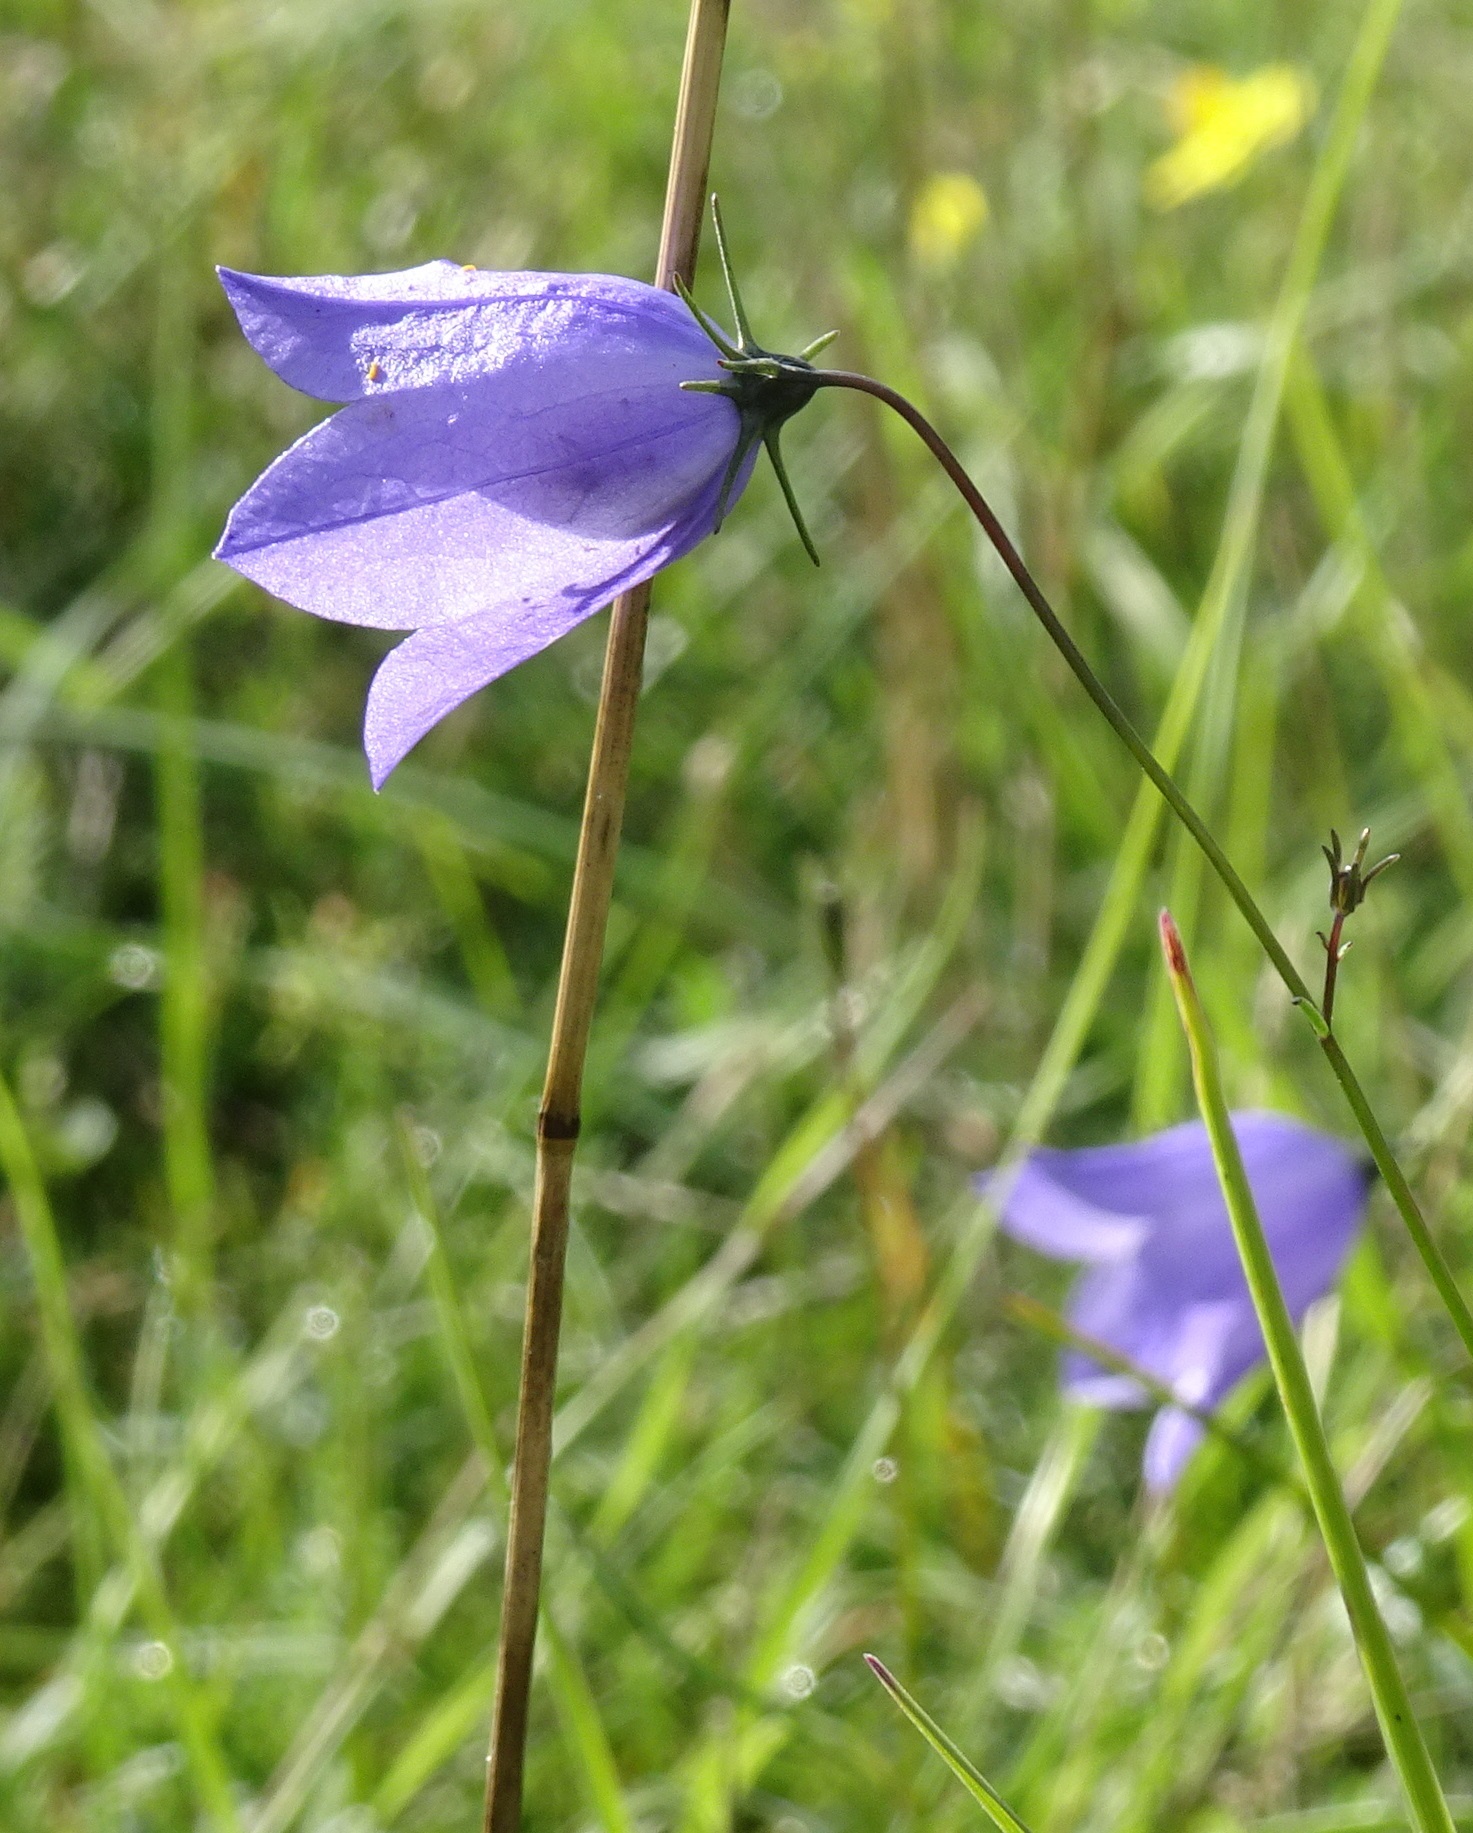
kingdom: Plantae
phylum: Tracheophyta
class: Magnoliopsida
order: Asterales
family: Campanulaceae
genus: Campanula
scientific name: Campanula rotundifolia
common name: Harebell
